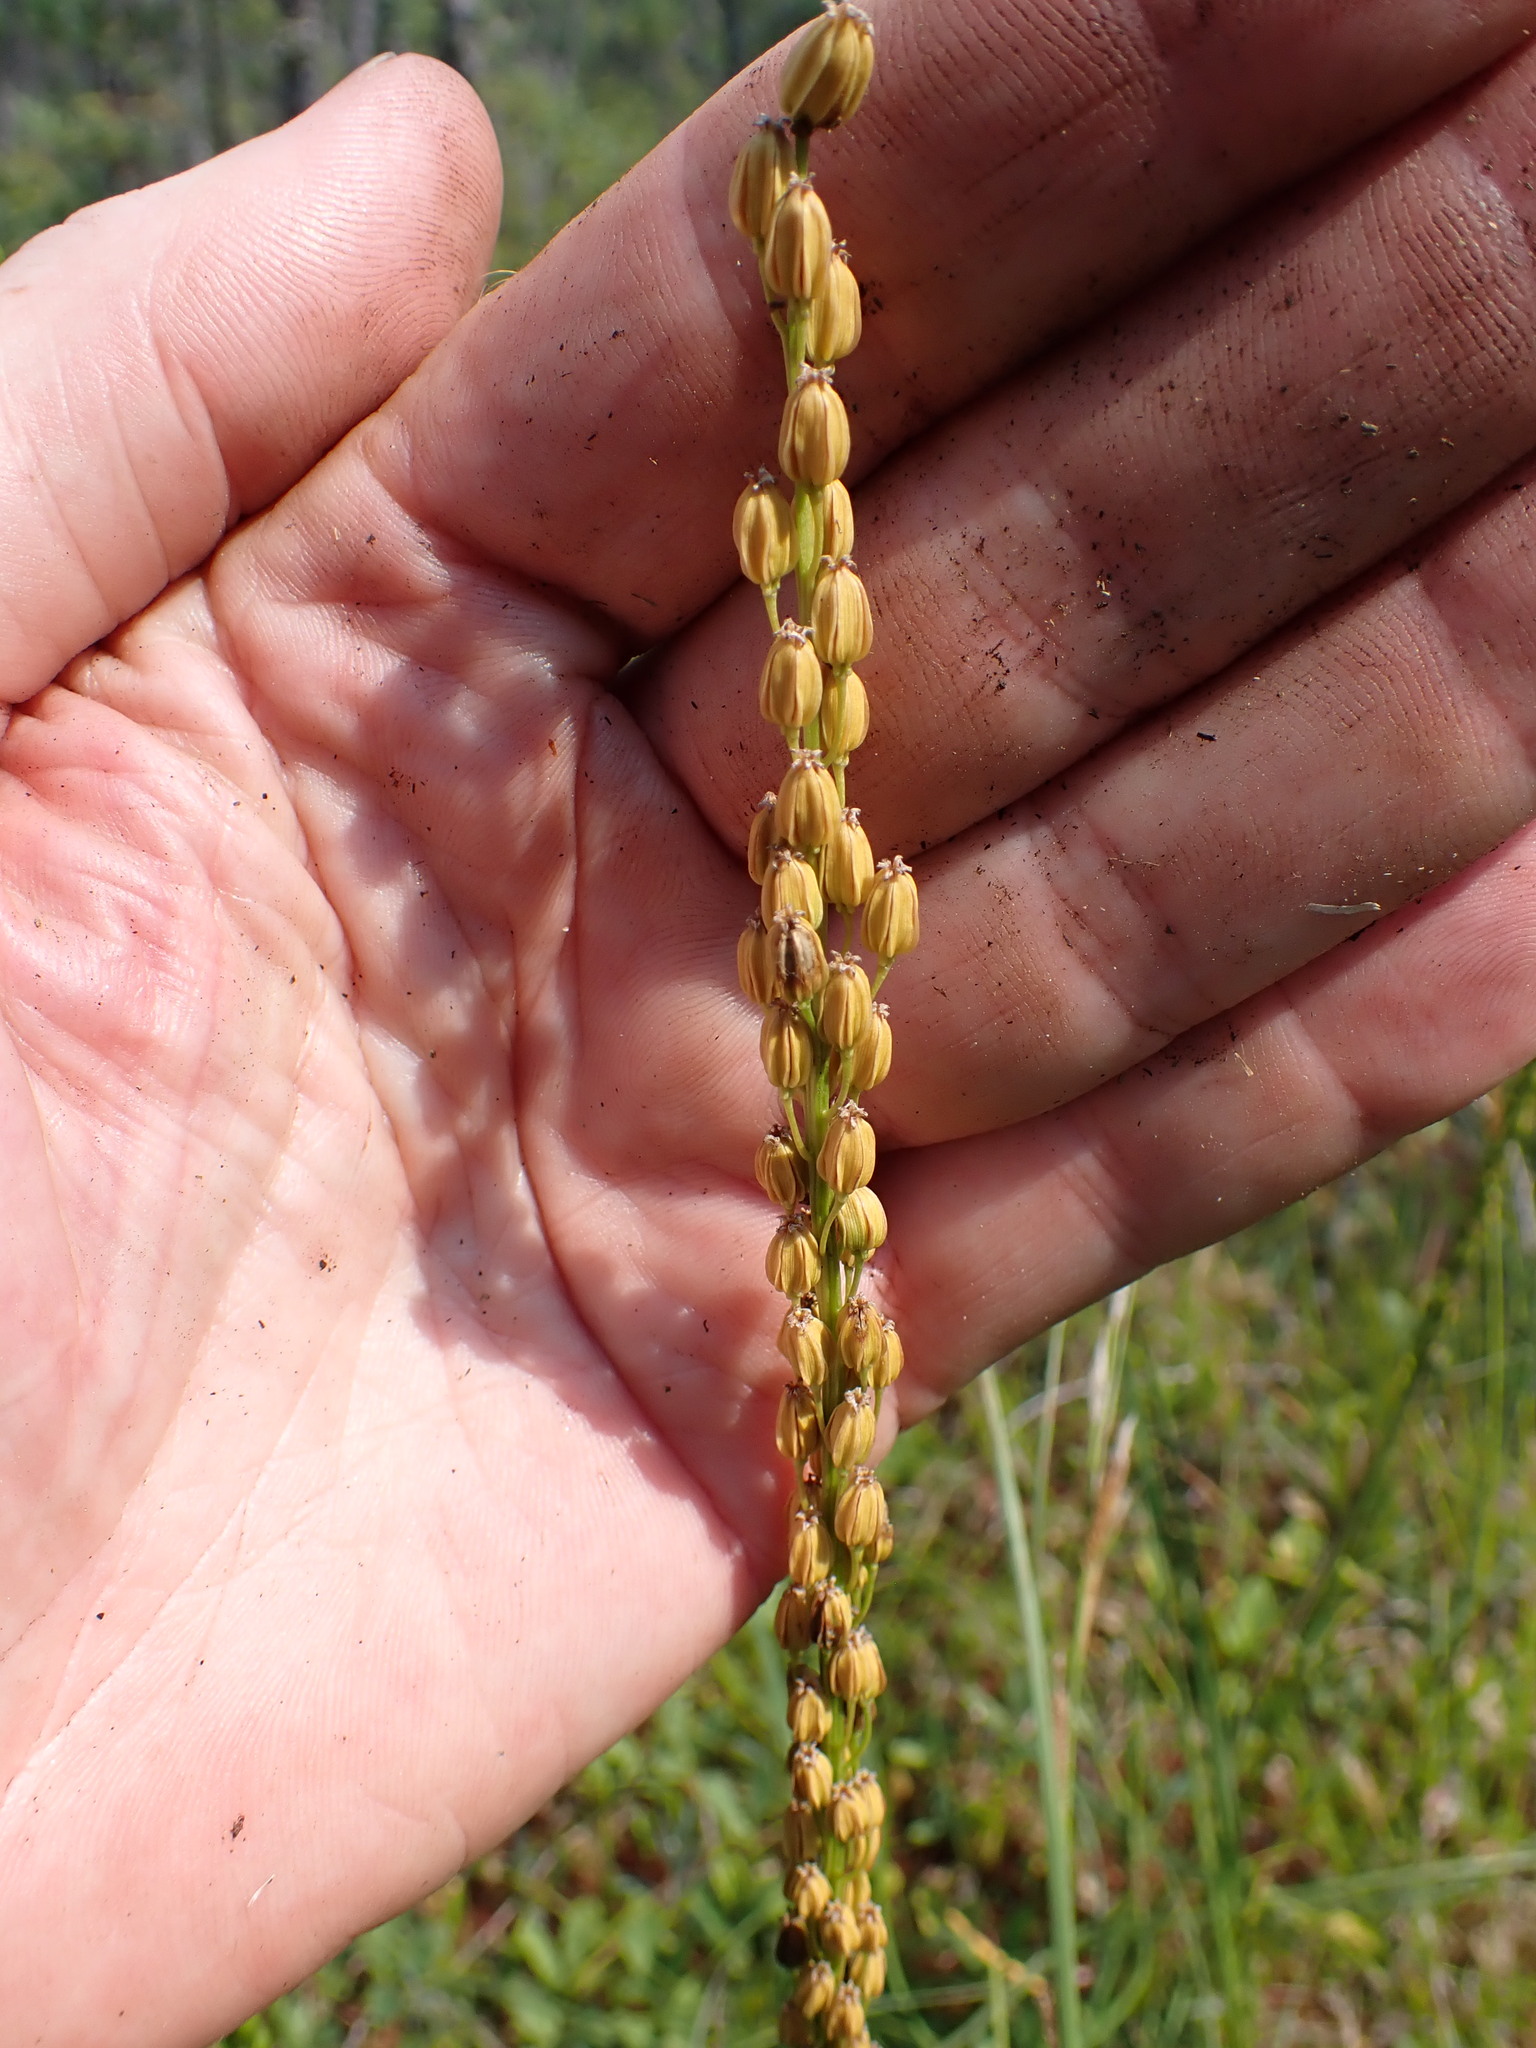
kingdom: Plantae
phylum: Tracheophyta
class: Liliopsida
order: Alismatales
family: Juncaginaceae
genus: Triglochin
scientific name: Triglochin maritima
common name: Sea arrowgrass
